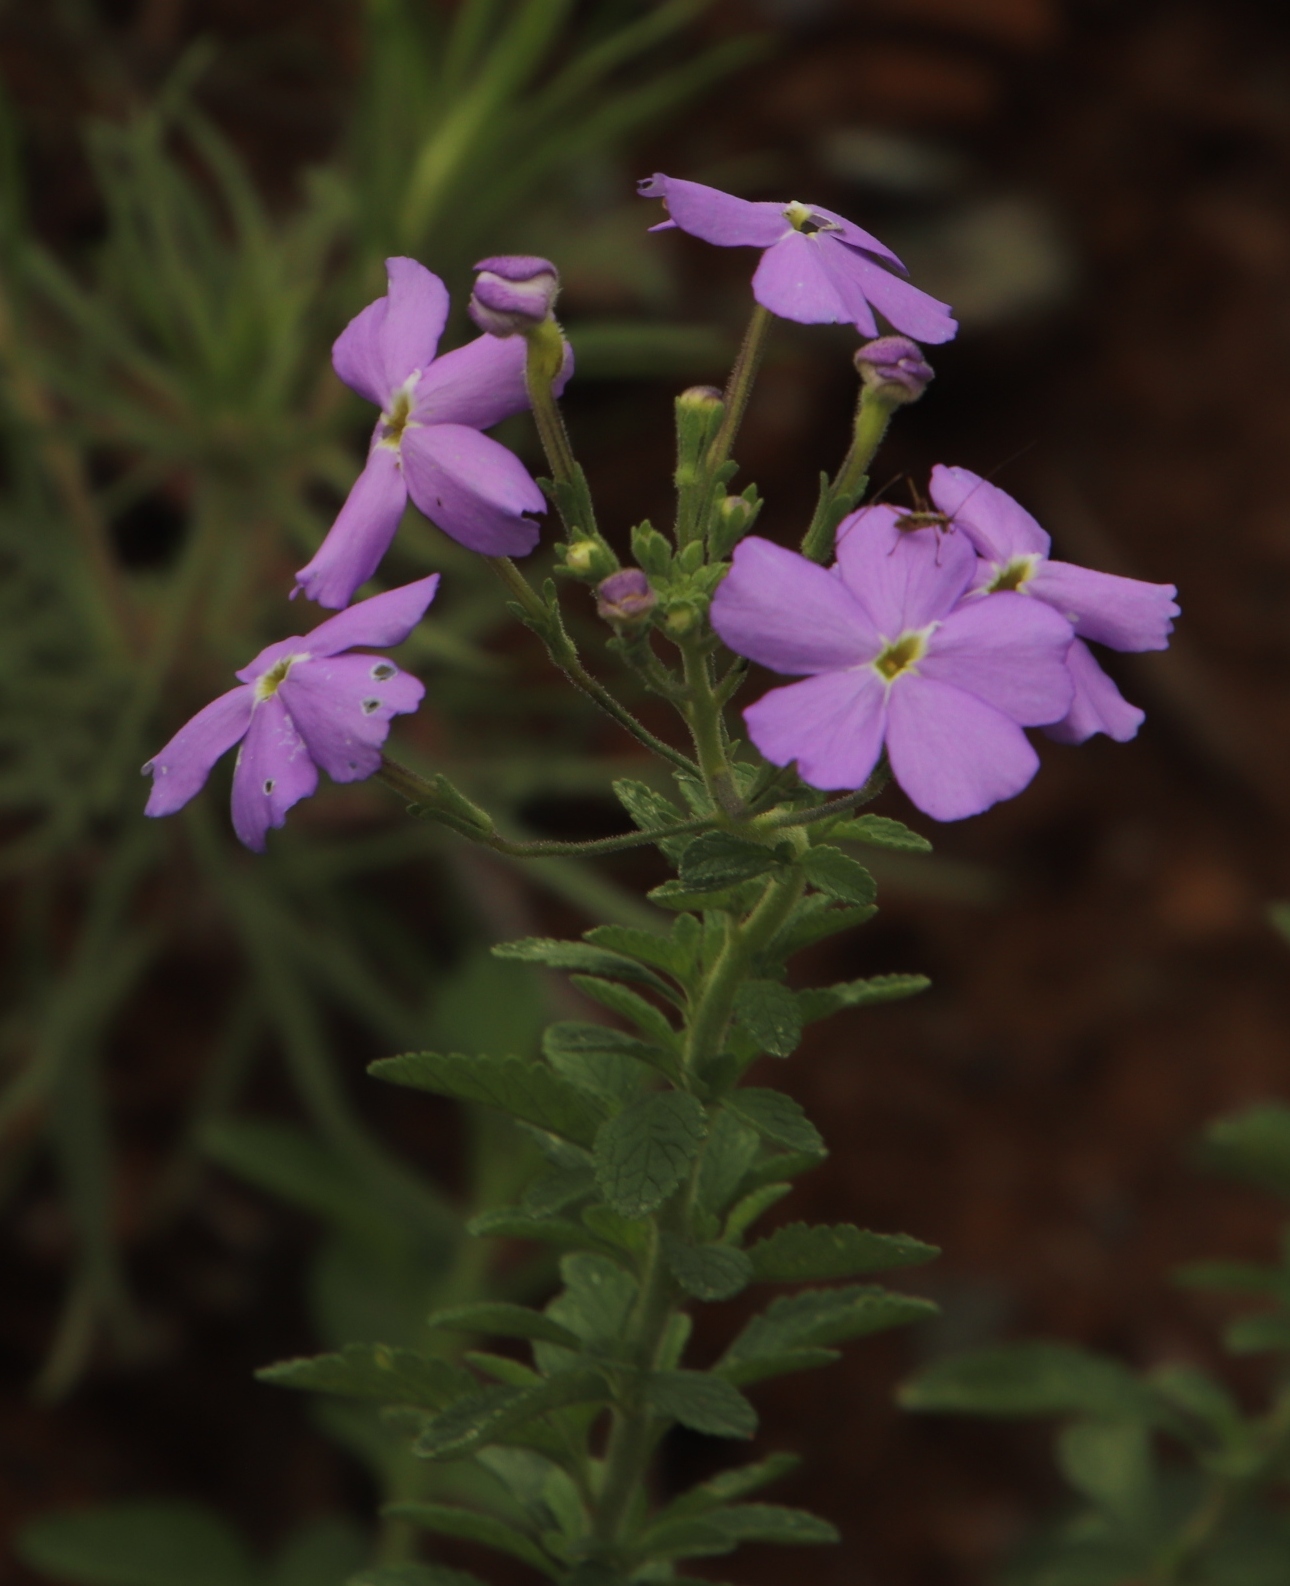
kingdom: Plantae
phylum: Tracheophyta
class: Magnoliopsida
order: Lamiales
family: Scrophulariaceae
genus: Jamesbrittenia
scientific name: Jamesbrittenia grandiflora
